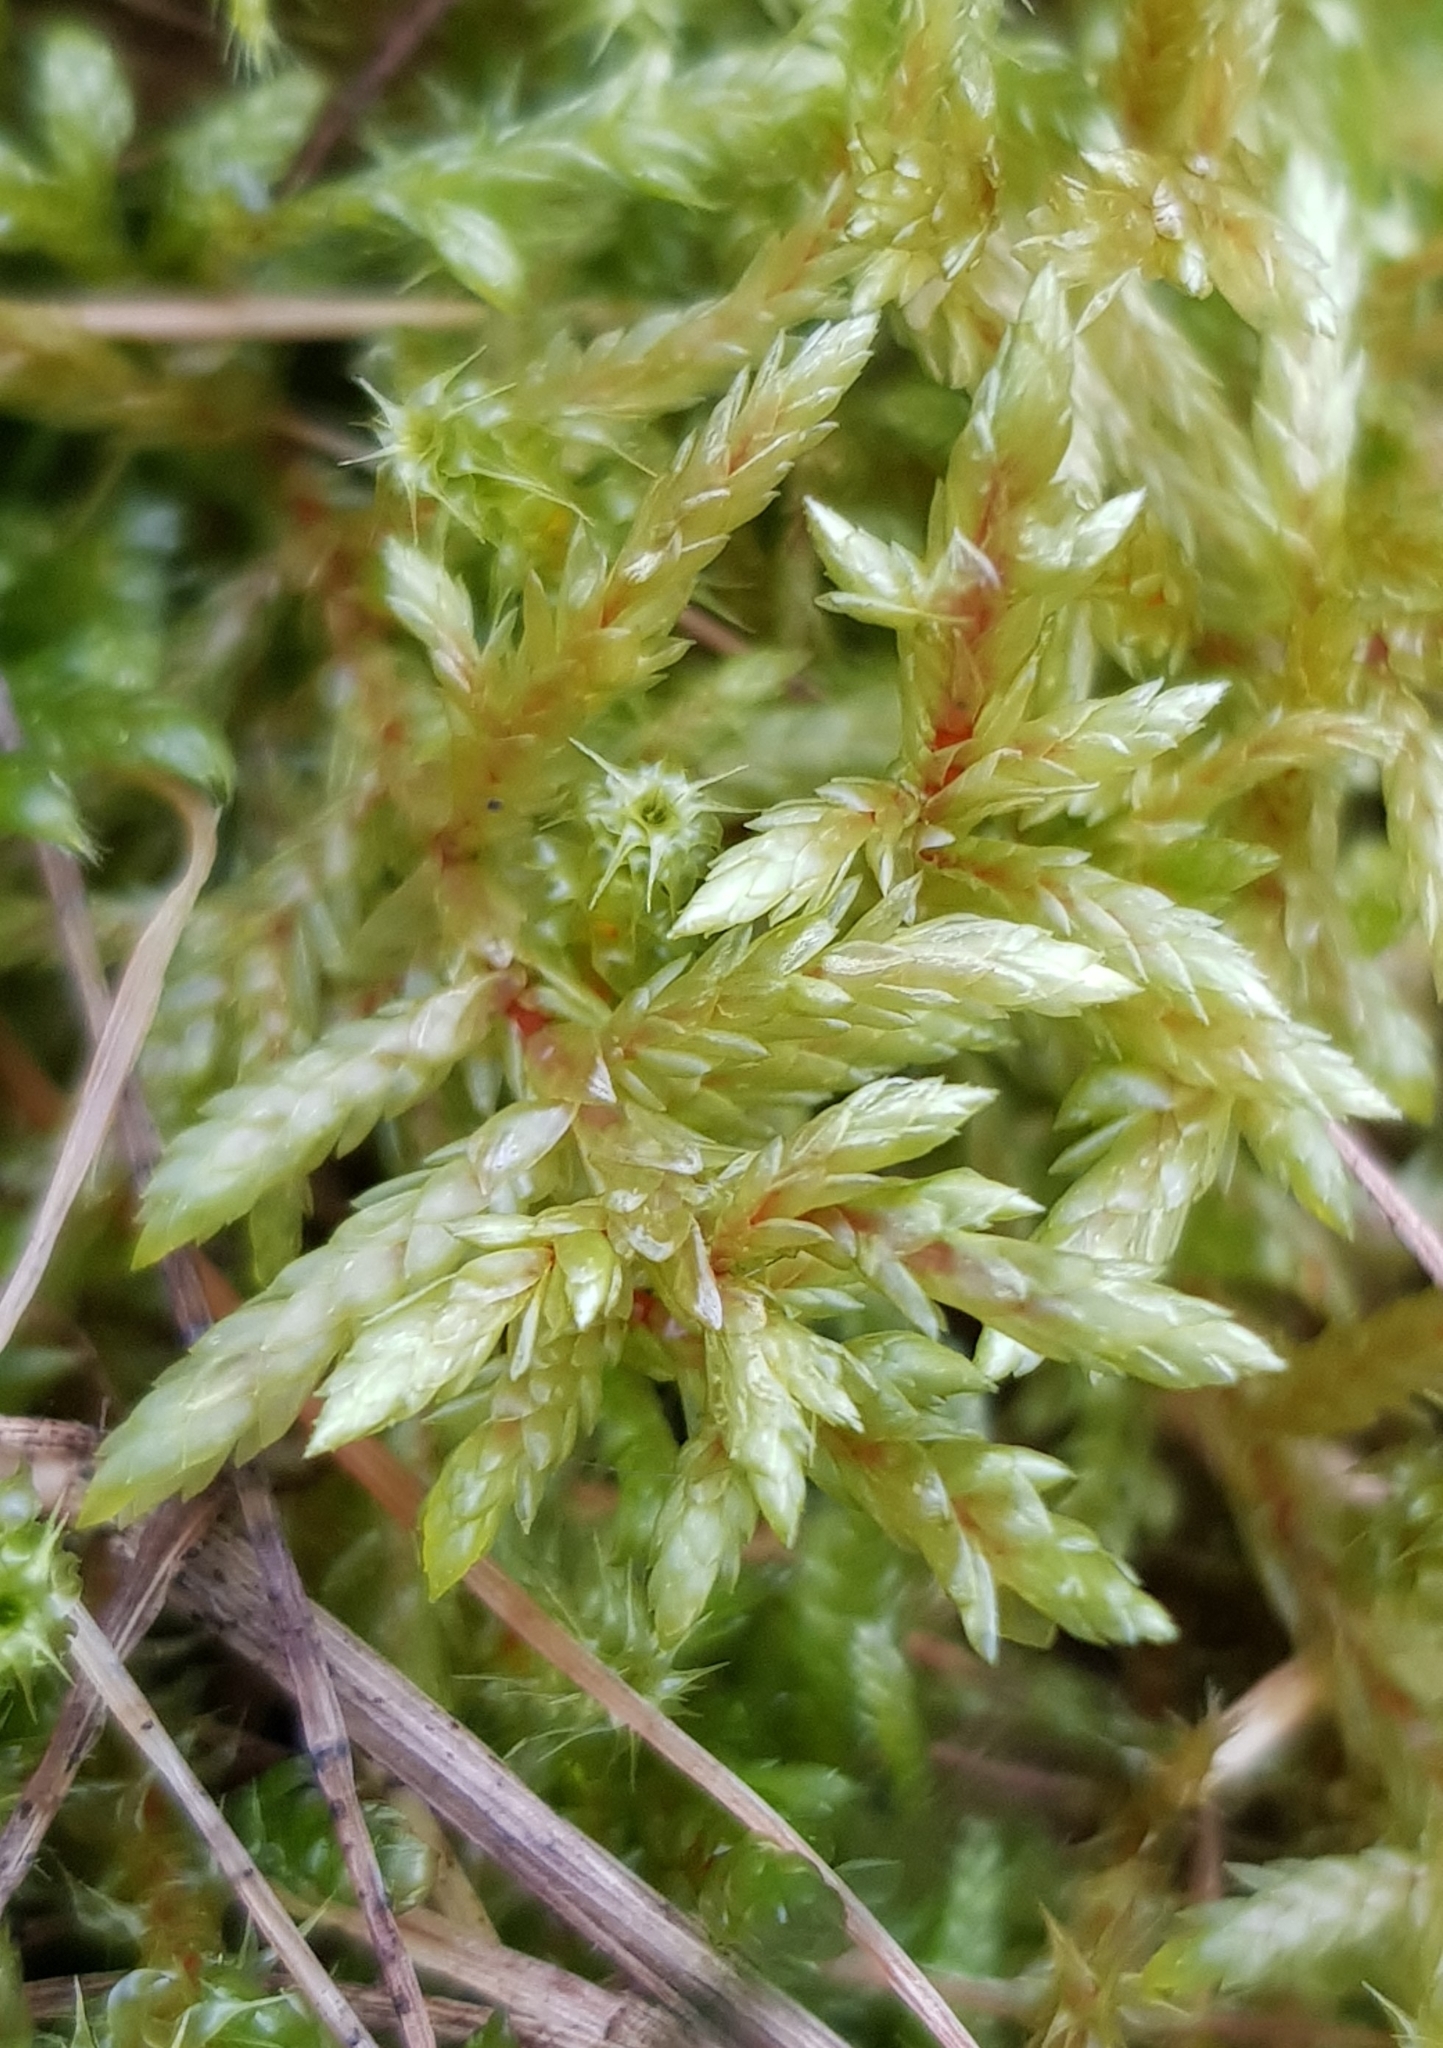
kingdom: Plantae
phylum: Bryophyta
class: Bryopsida
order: Hypnales
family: Hylocomiaceae
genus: Pleurozium
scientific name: Pleurozium schreberi
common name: Red-stemmed feather moss
